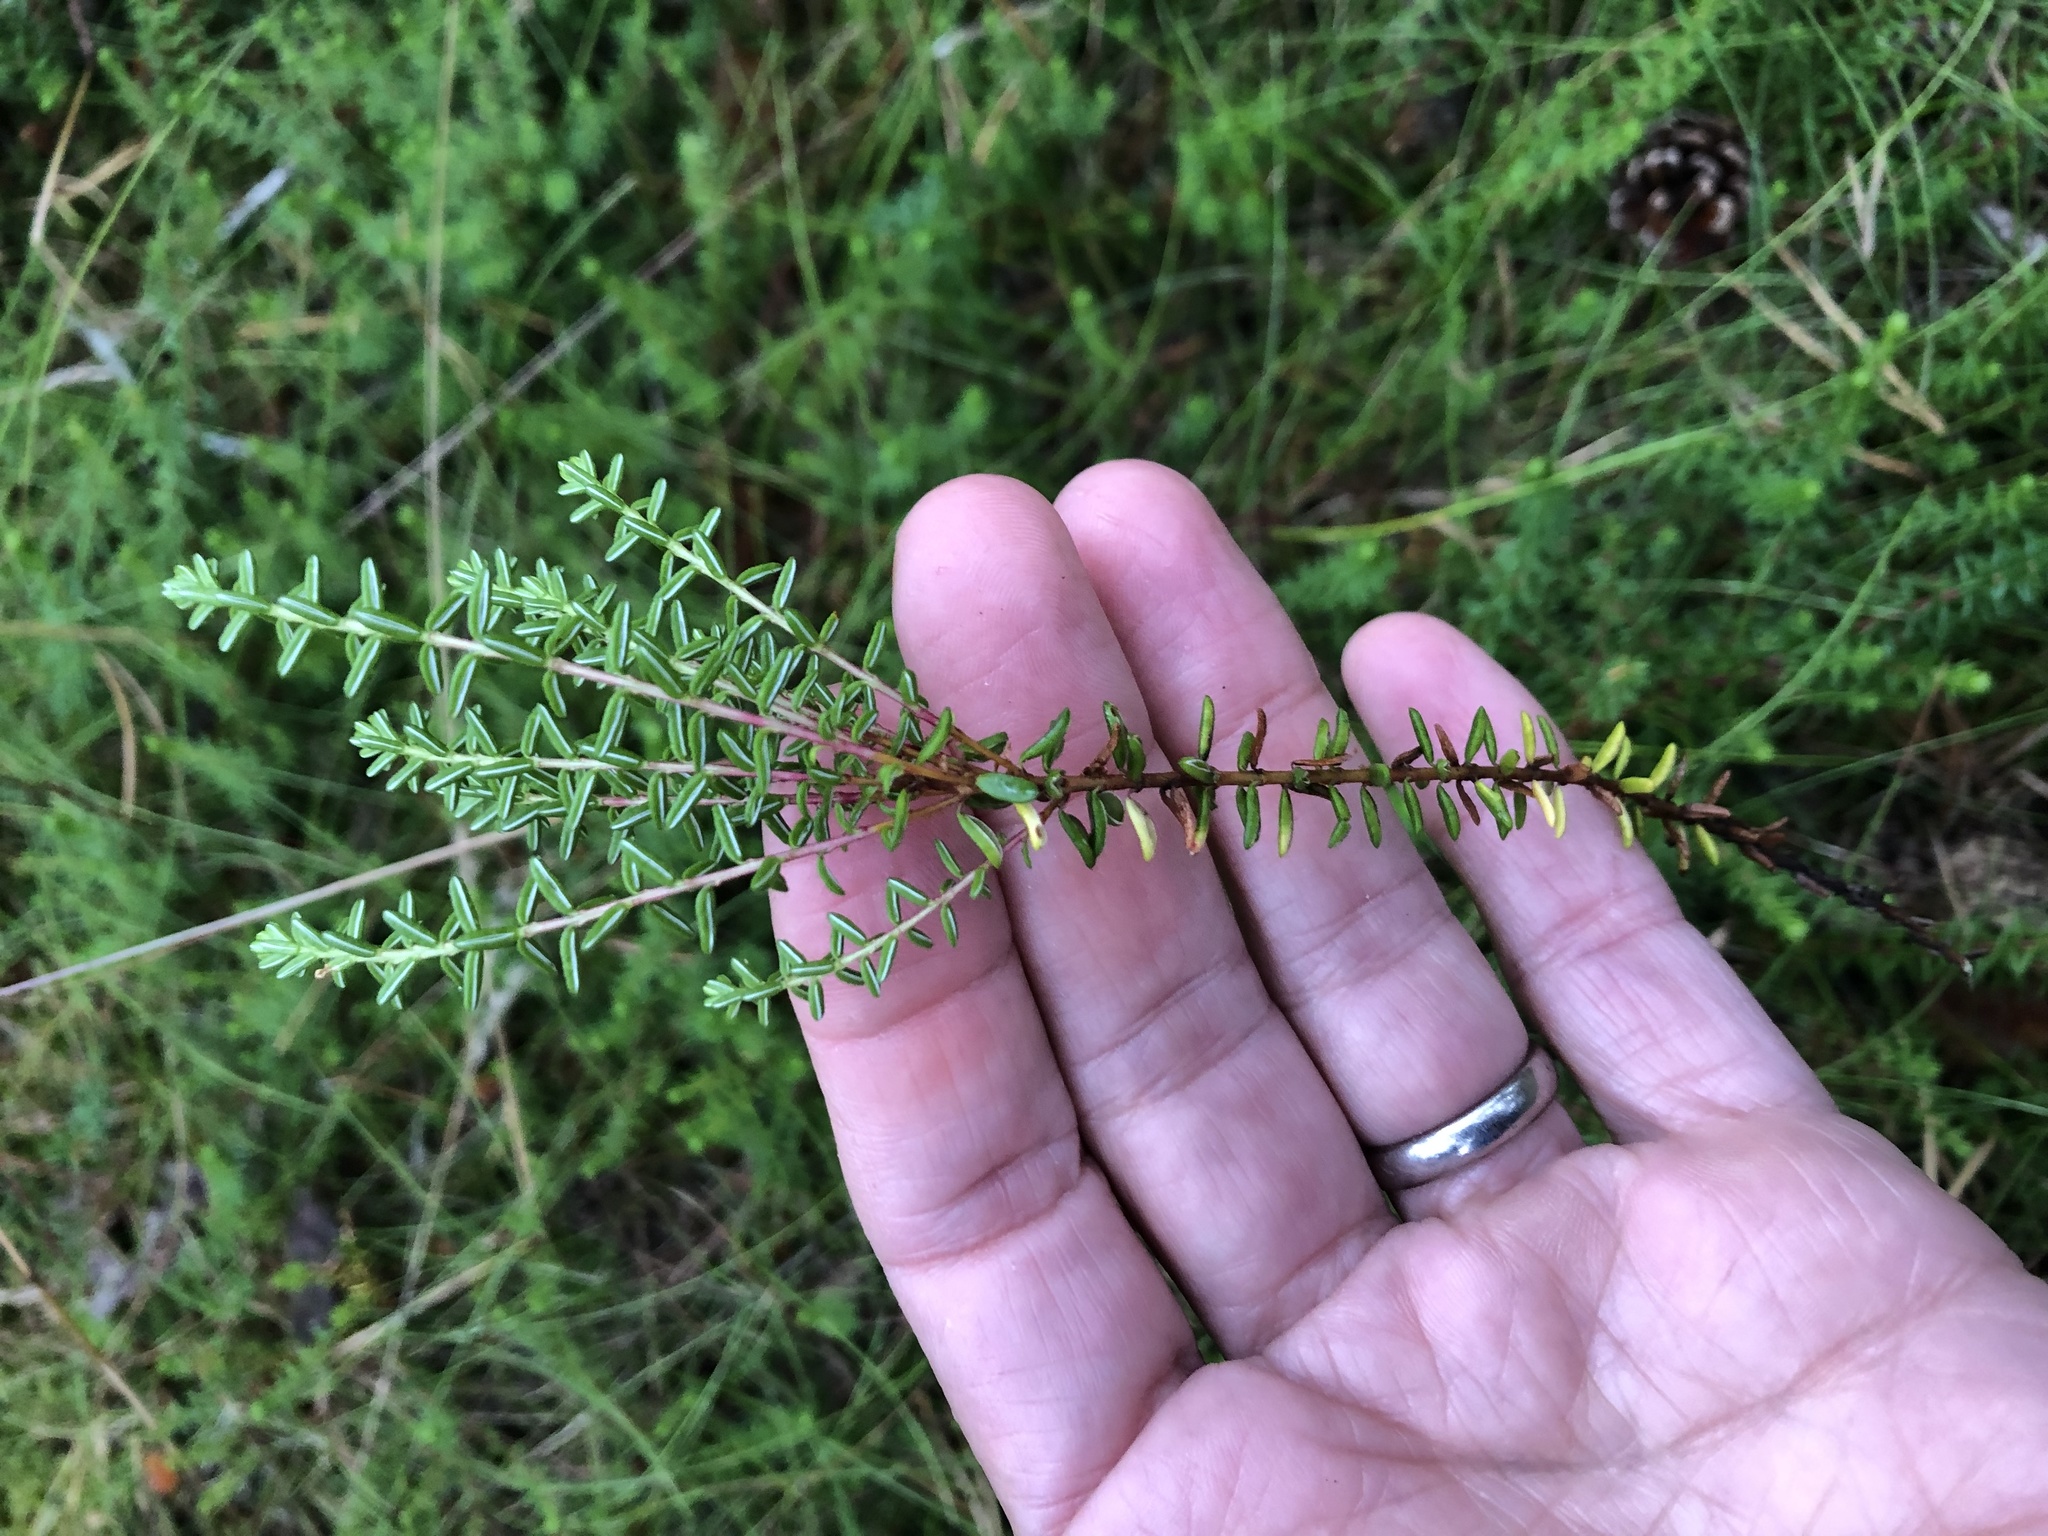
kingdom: Plantae
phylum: Tracheophyta
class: Magnoliopsida
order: Ericales
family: Ericaceae
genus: Empetrum
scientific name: Empetrum nigrum
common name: Black crowberry
